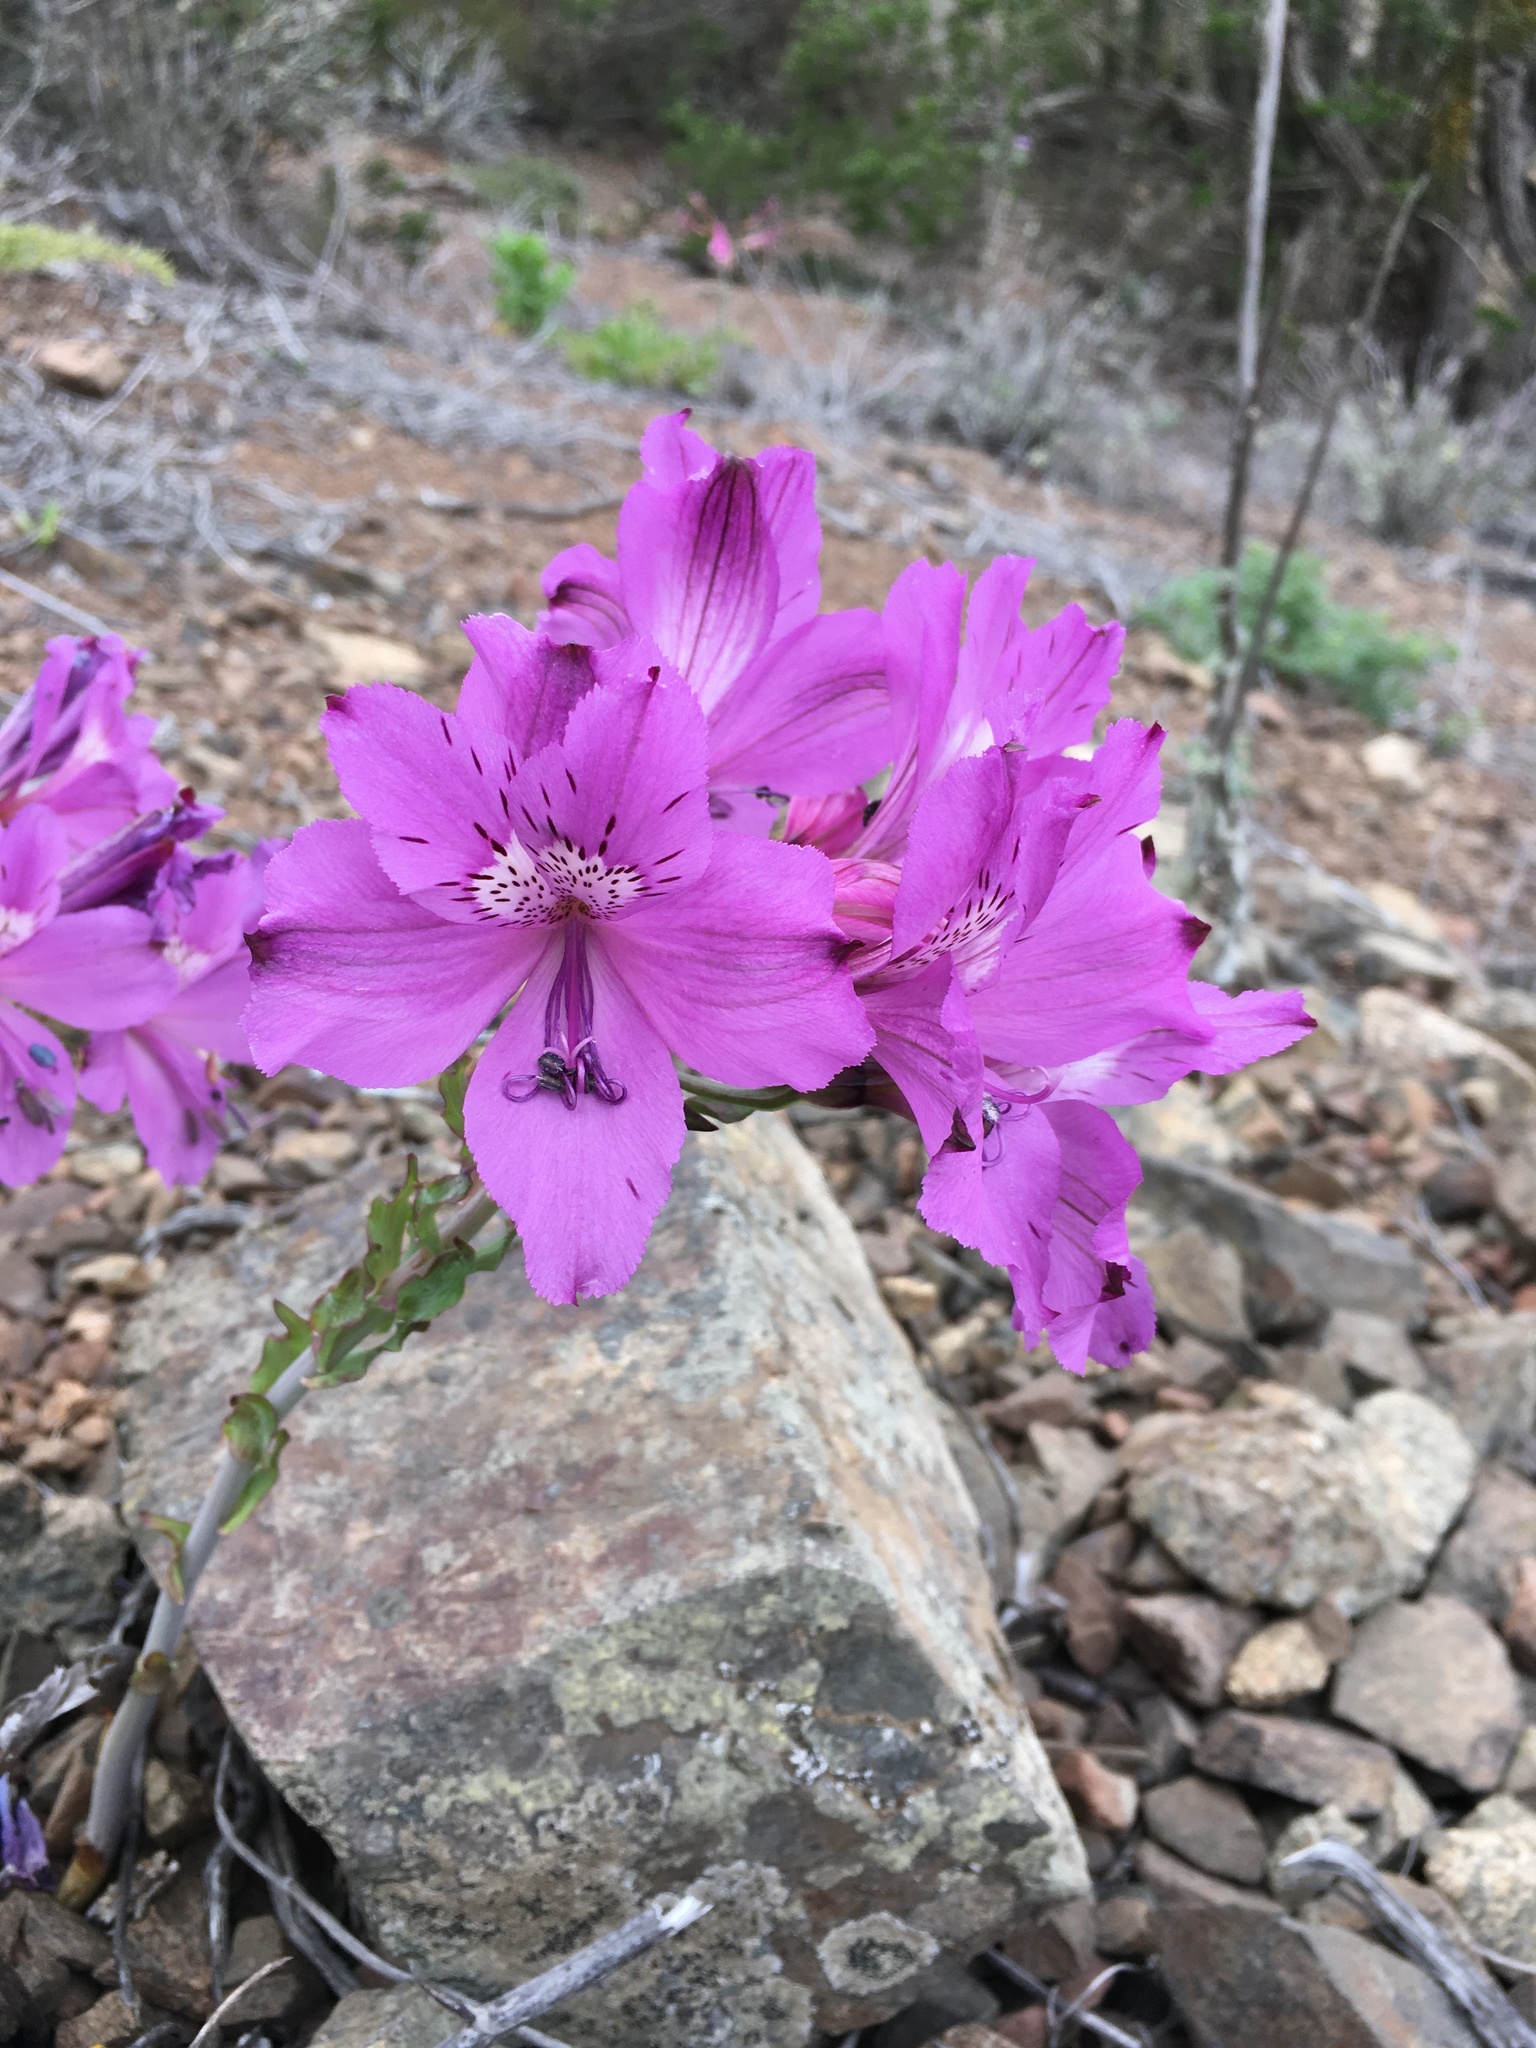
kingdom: Plantae
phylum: Tracheophyta
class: Liliopsida
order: Liliales
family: Alstroemeriaceae
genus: Alstroemeria
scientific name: Alstroemeria violacea
